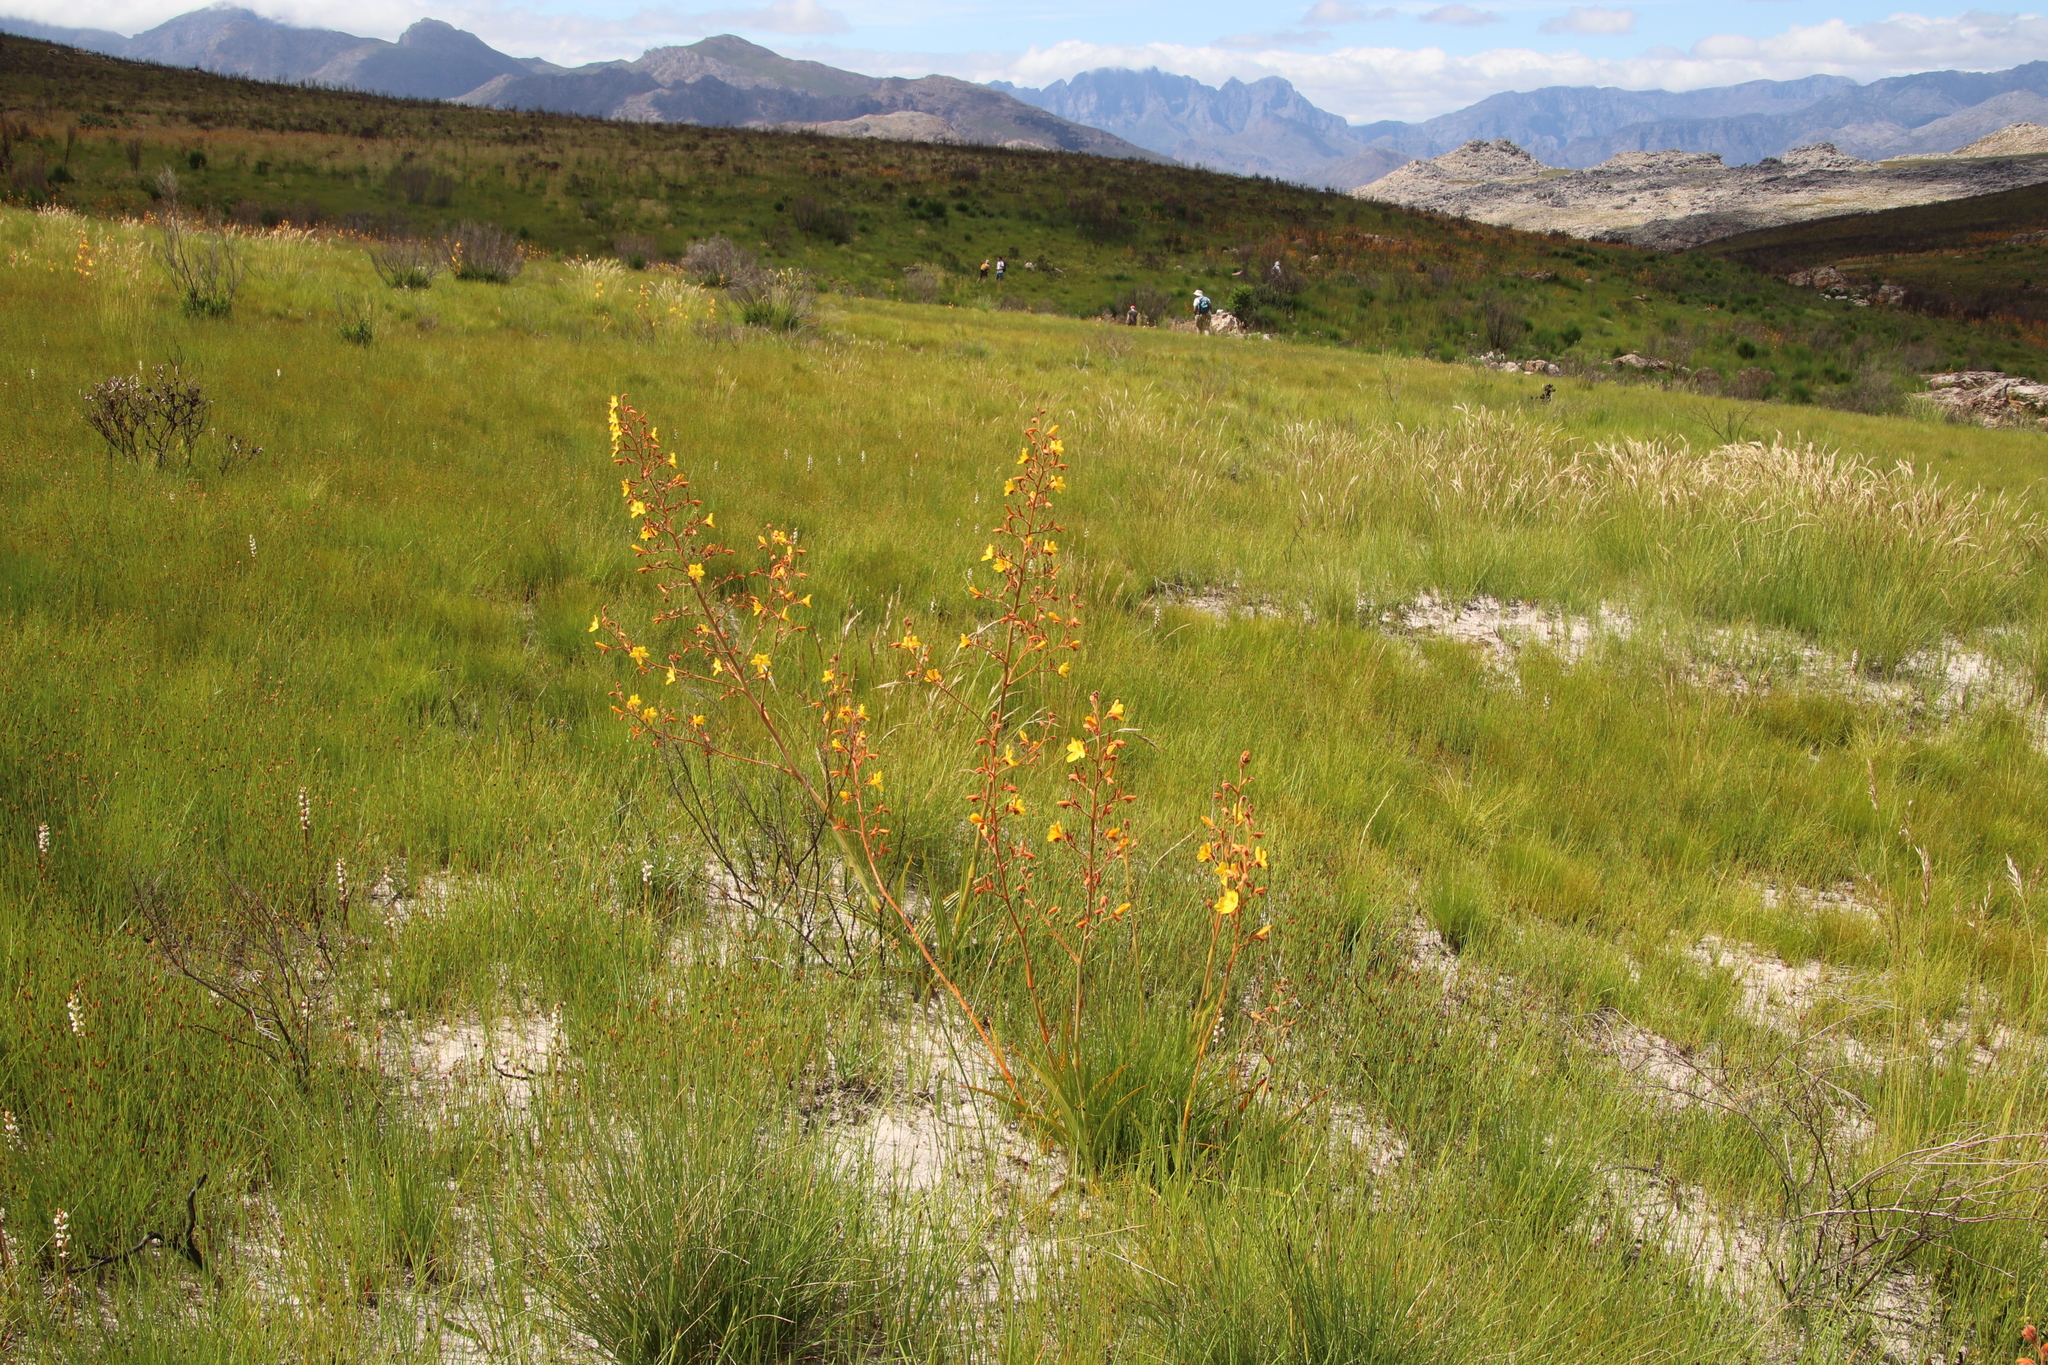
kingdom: Plantae
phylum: Tracheophyta
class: Liliopsida
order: Commelinales
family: Haemodoraceae
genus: Wachendorfia
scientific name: Wachendorfia paniculata
